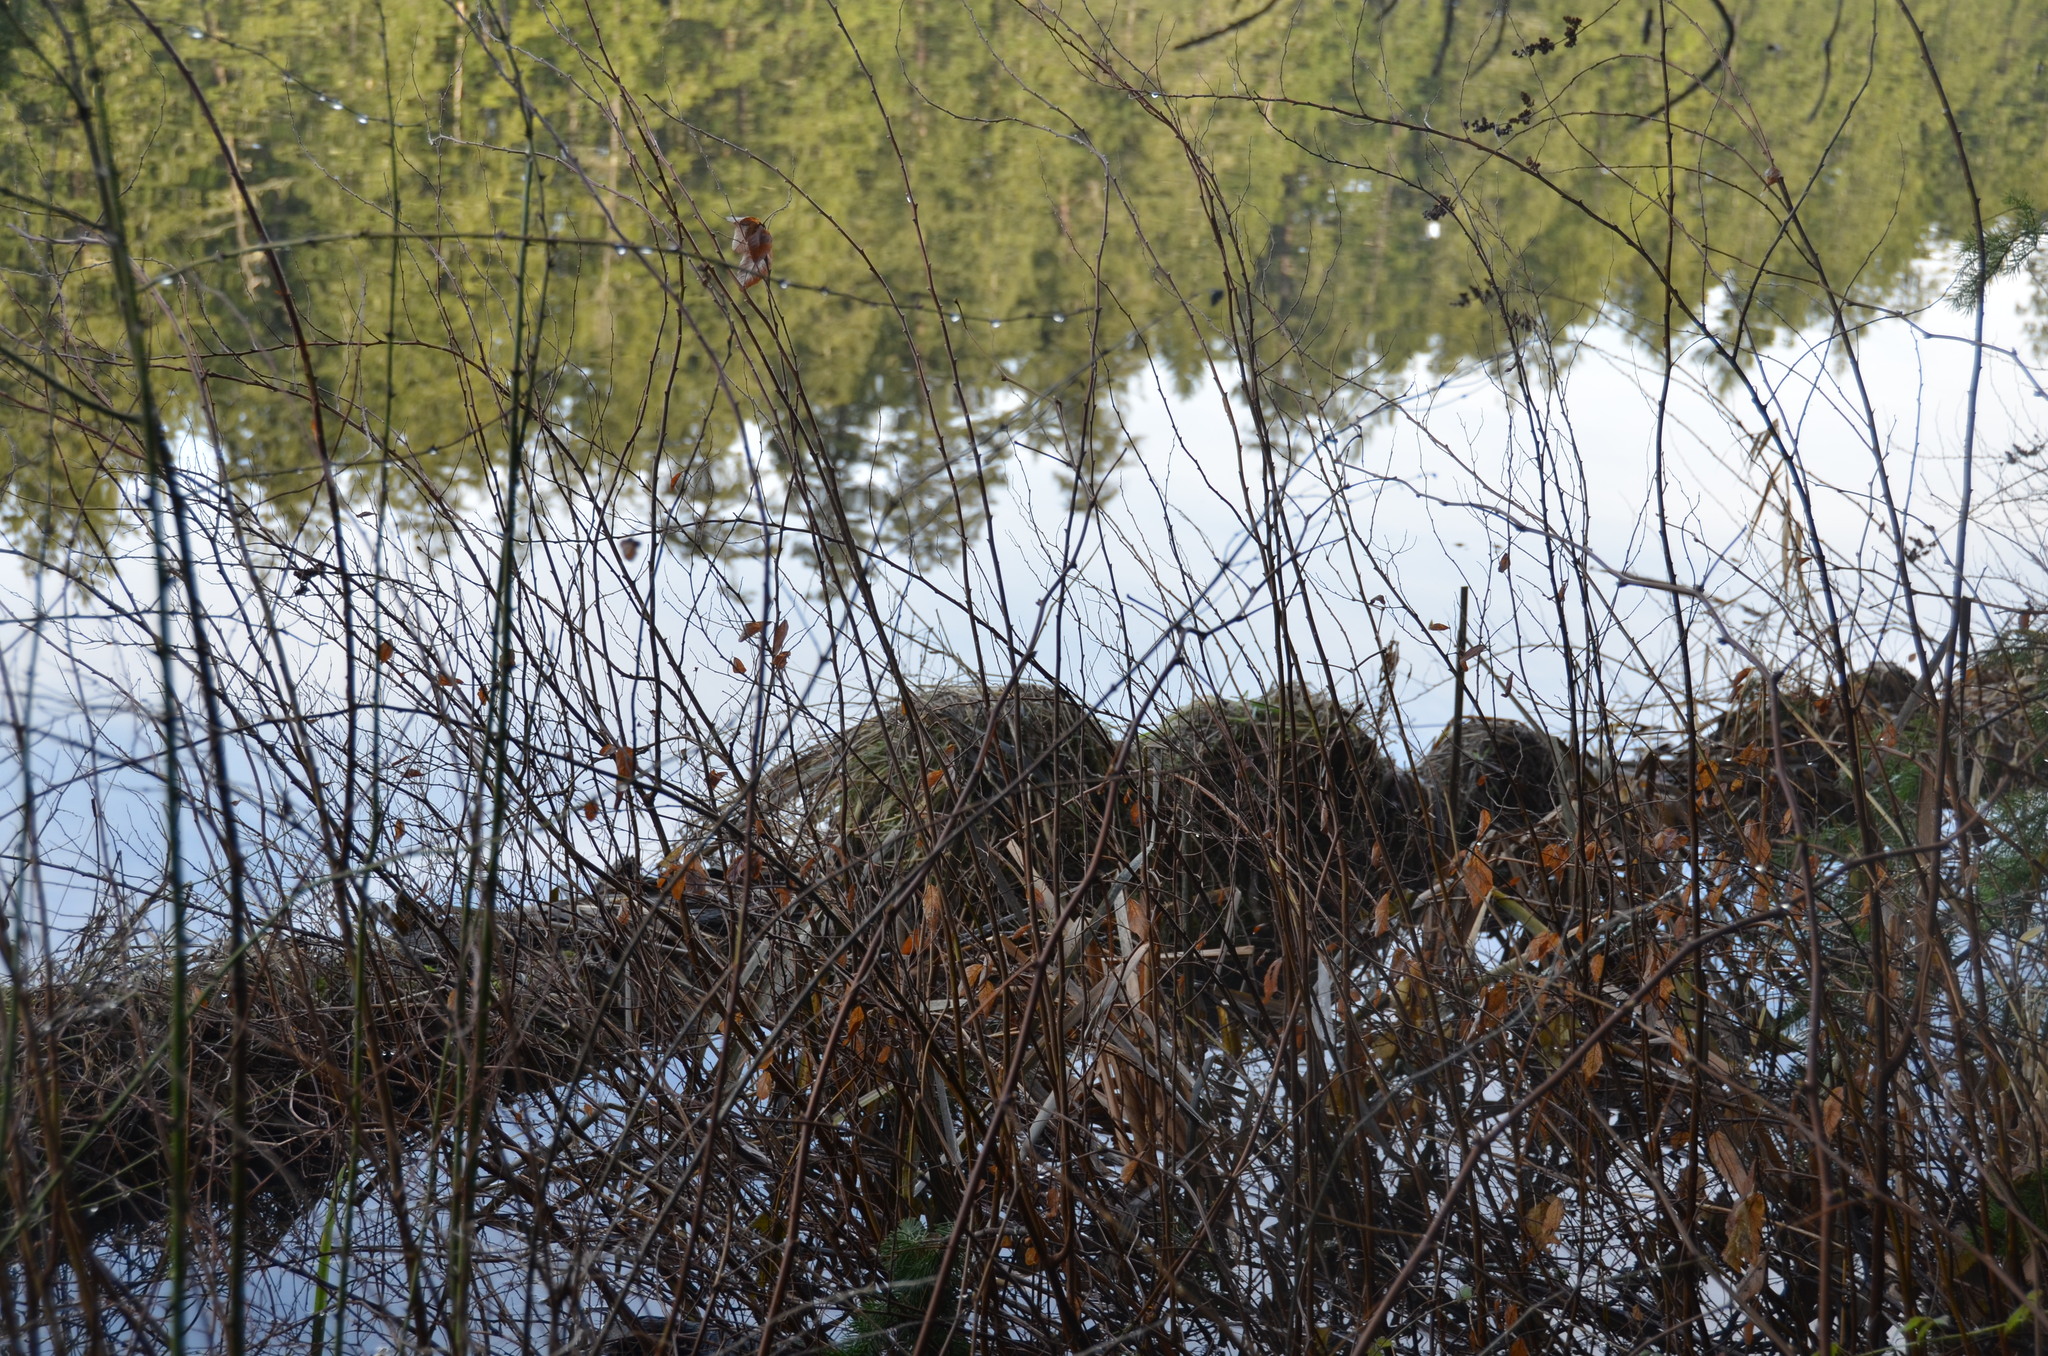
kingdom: Animalia
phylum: Chordata
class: Mammalia
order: Rodentia
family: Cricetidae
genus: Ondatra
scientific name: Ondatra zibethicus
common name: Muskrat
